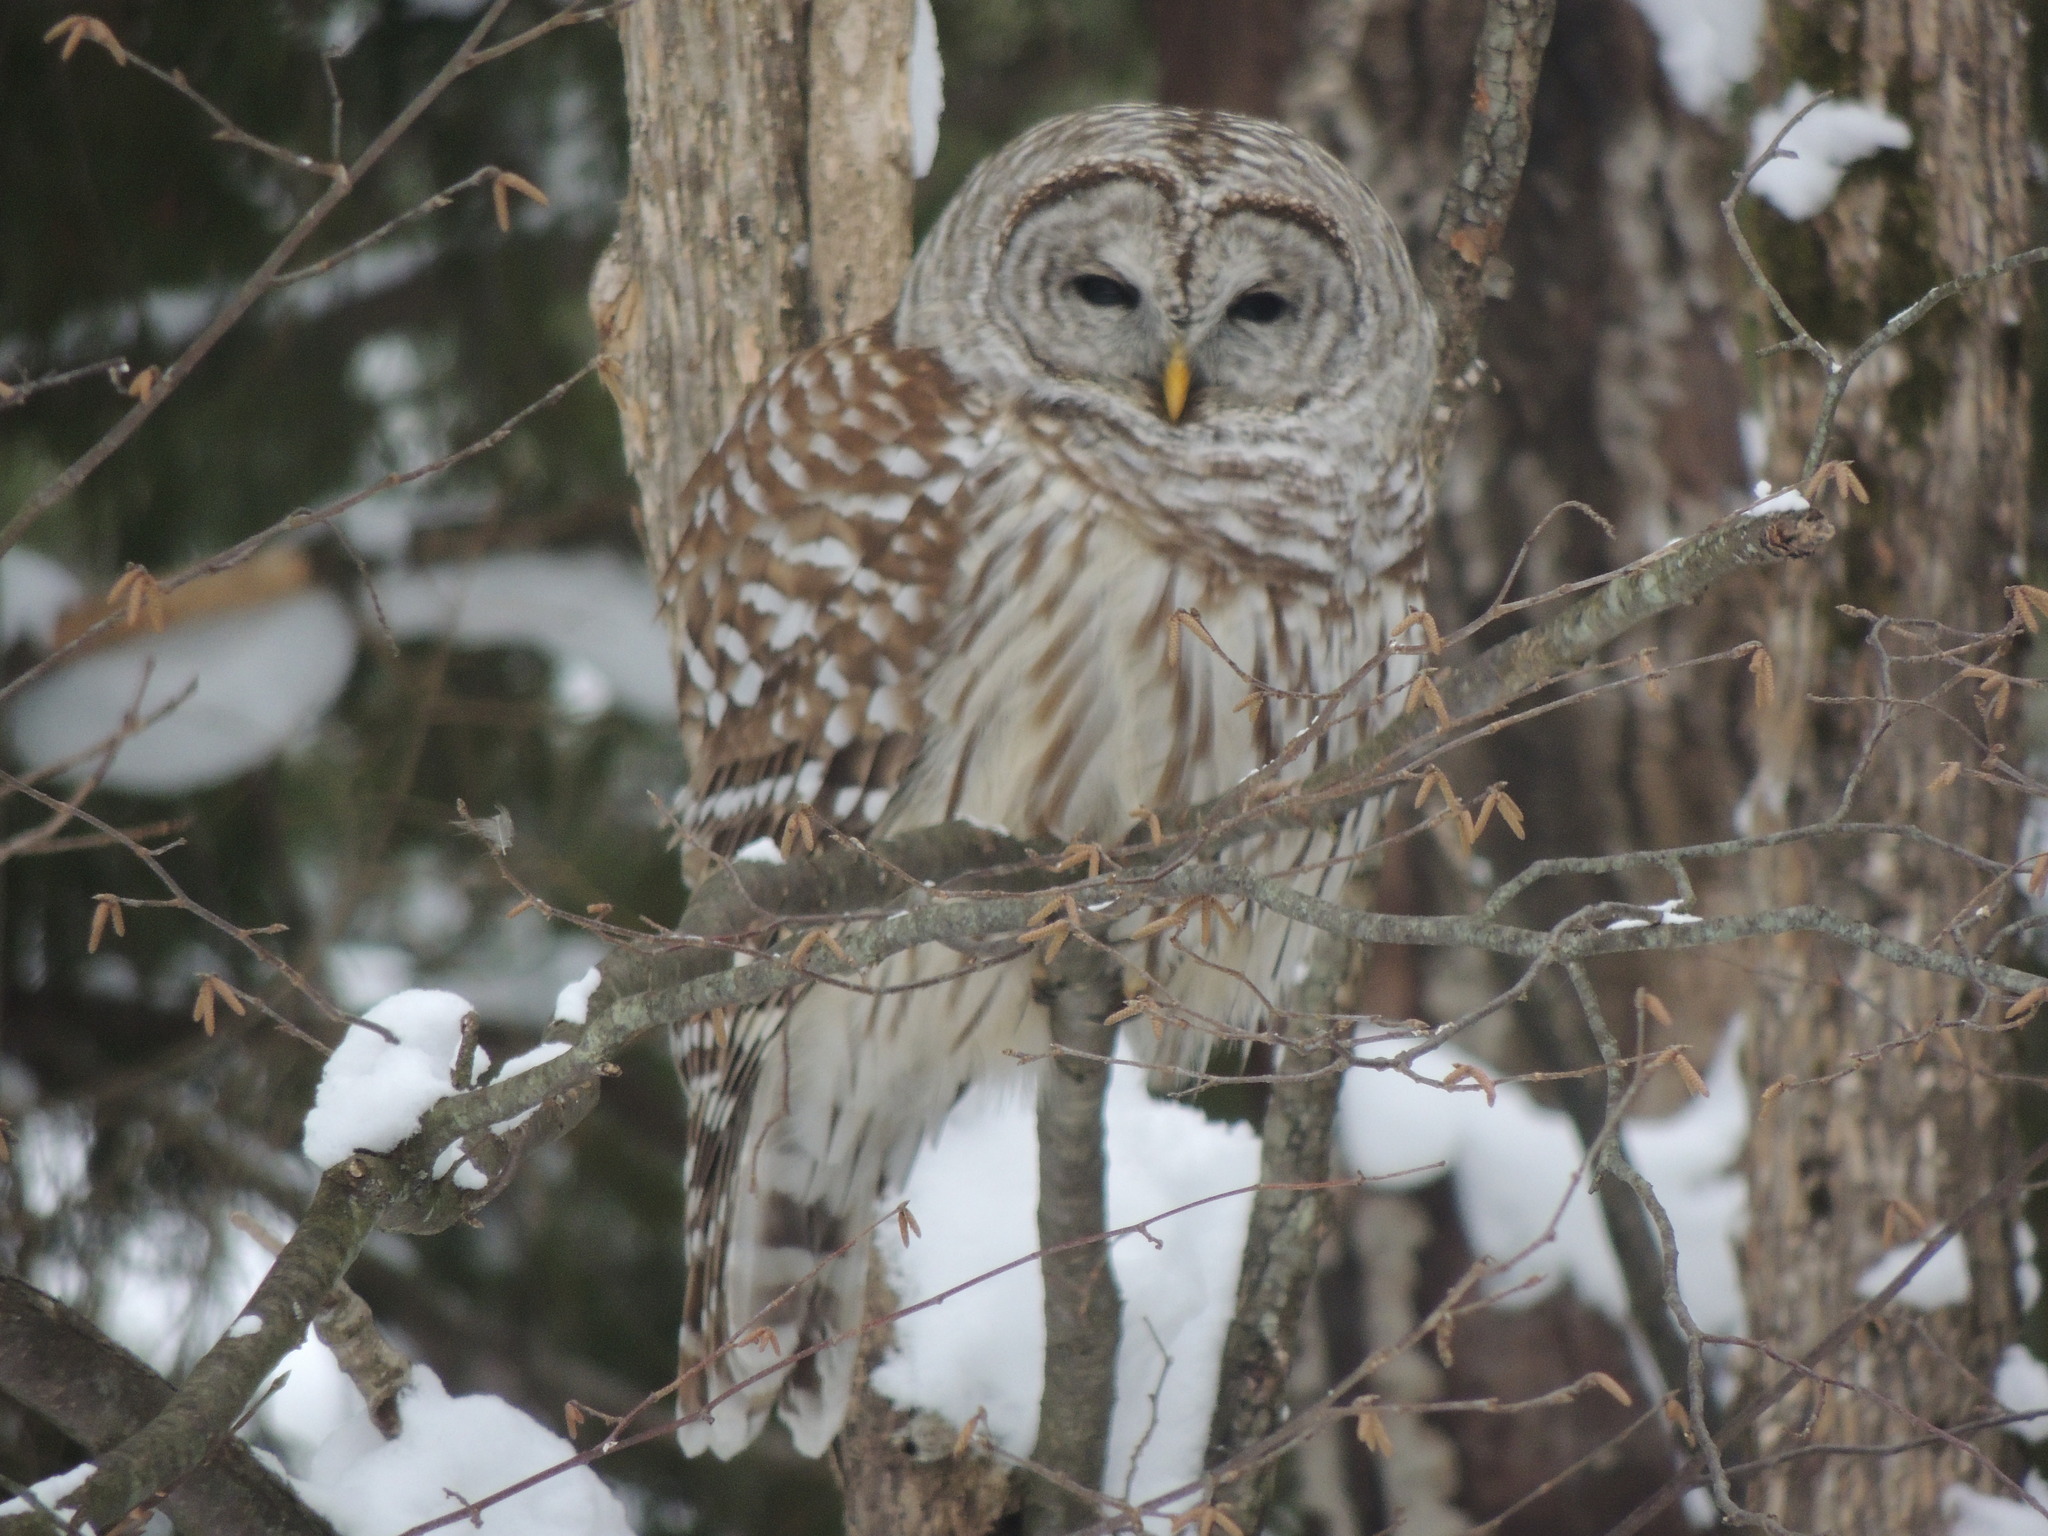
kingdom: Animalia
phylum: Chordata
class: Aves
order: Strigiformes
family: Strigidae
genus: Strix
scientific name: Strix varia
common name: Barred owl
